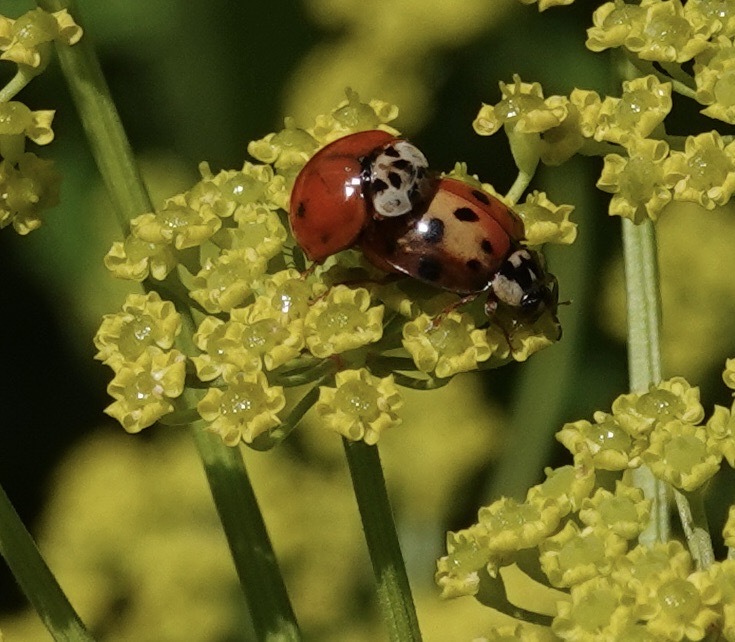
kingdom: Animalia
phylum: Arthropoda
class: Insecta
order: Coleoptera
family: Coccinellidae
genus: Harmonia
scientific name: Harmonia axyridis
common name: Harlequin ladybird
